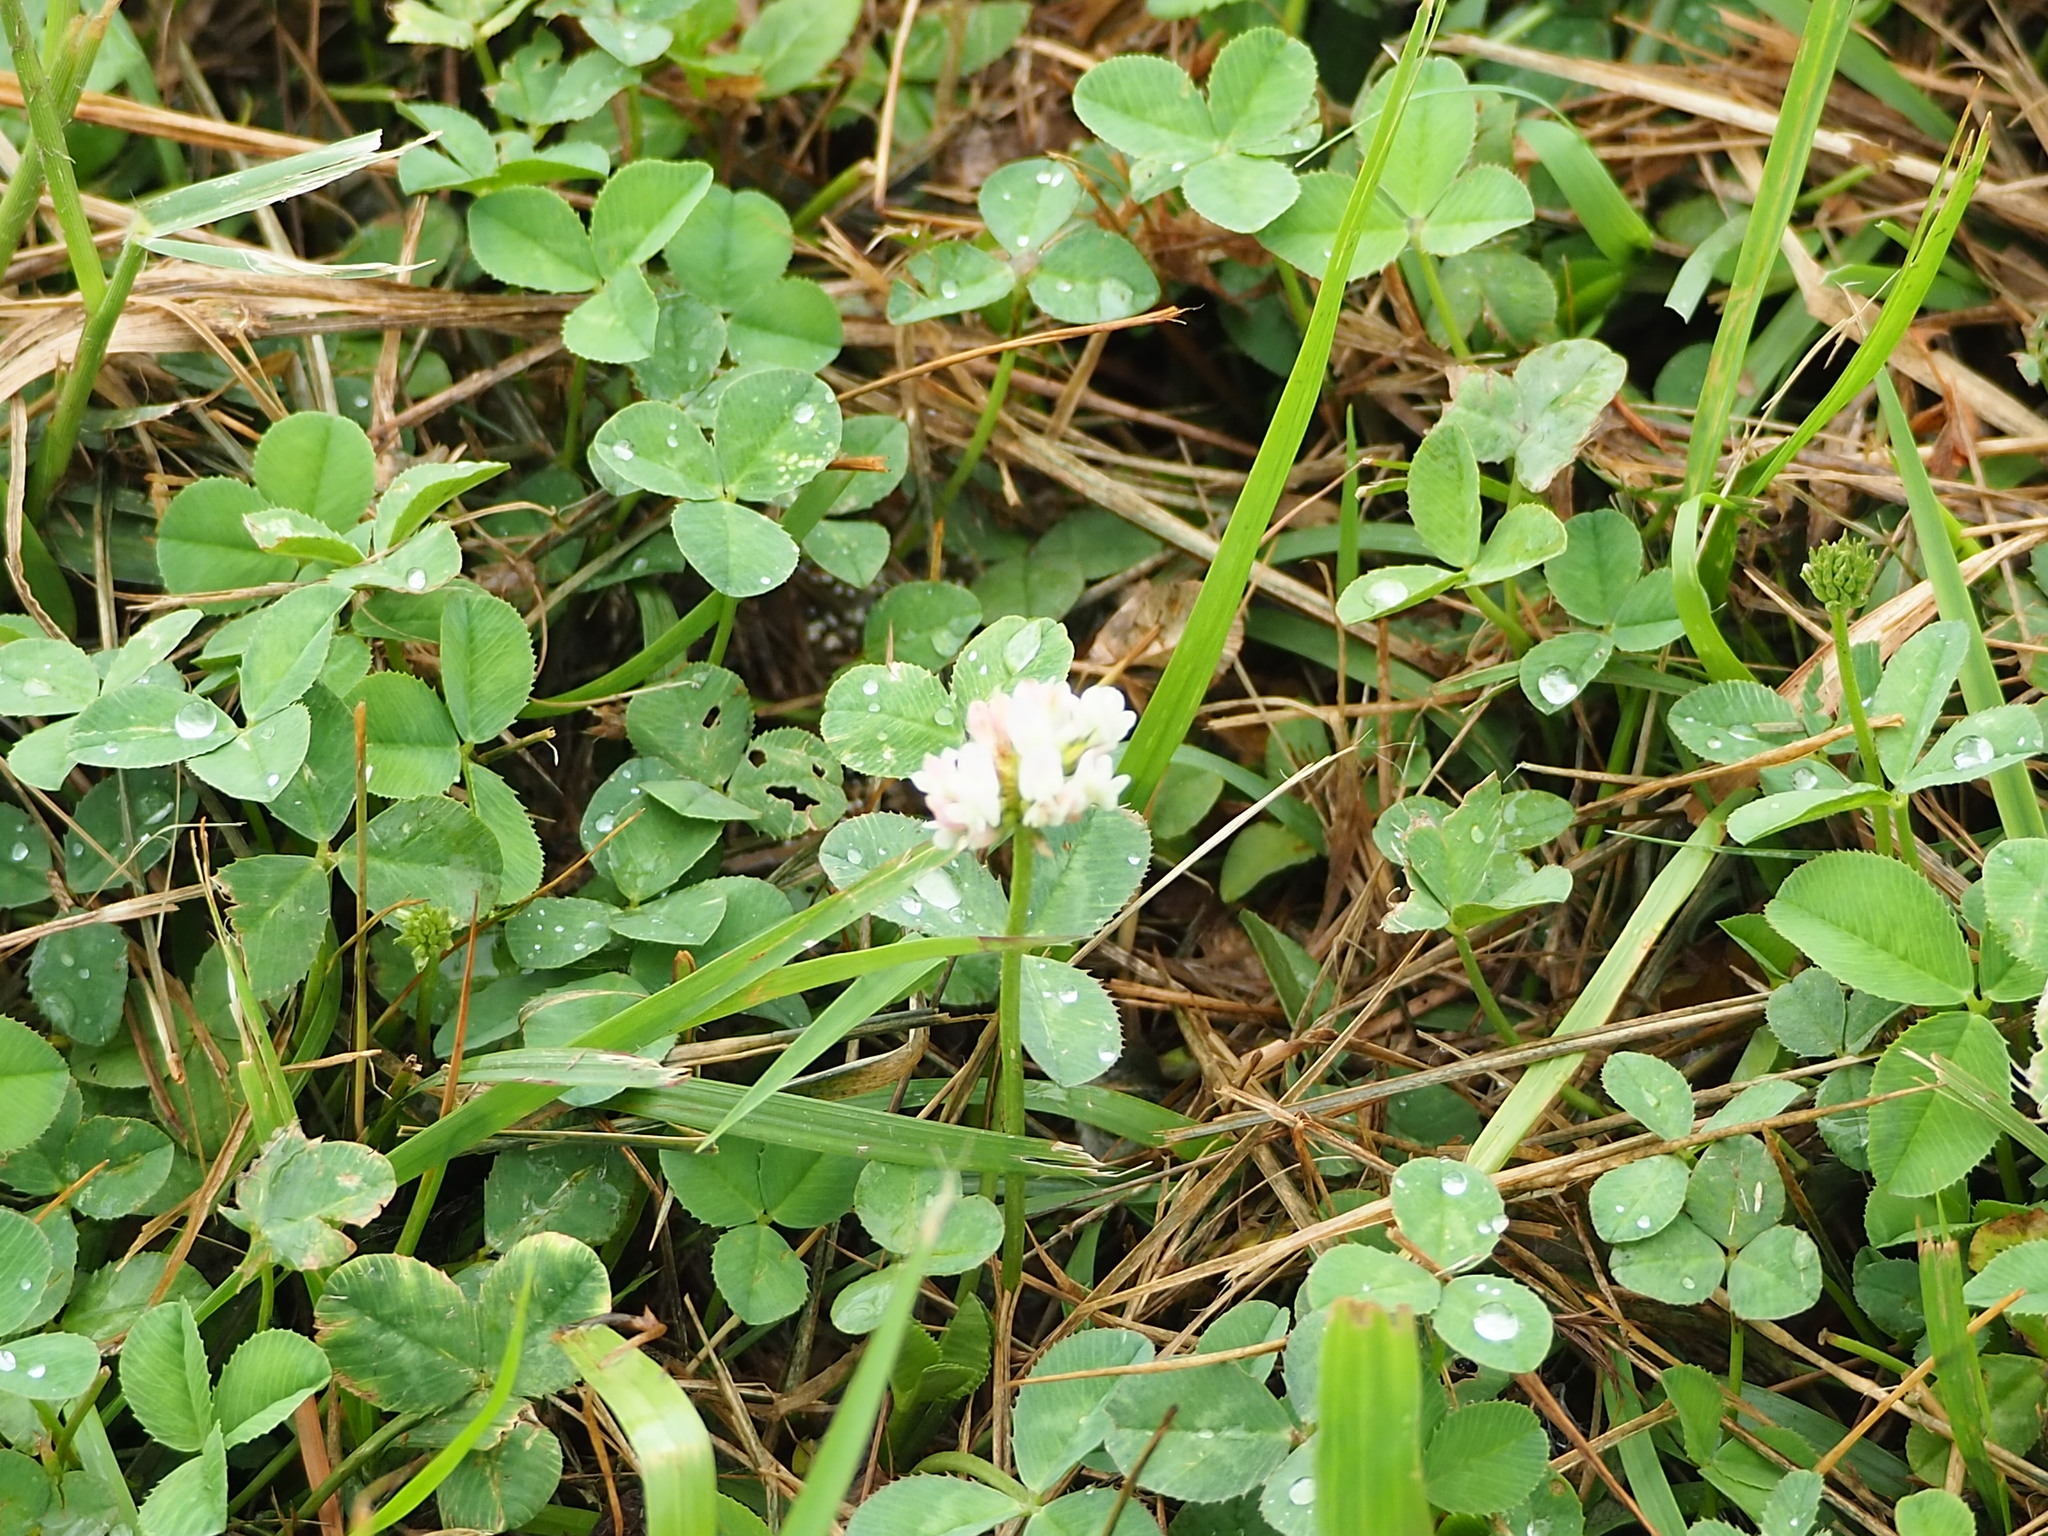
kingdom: Plantae
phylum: Tracheophyta
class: Magnoliopsida
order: Fabales
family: Fabaceae
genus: Trifolium
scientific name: Trifolium repens
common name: White clover
